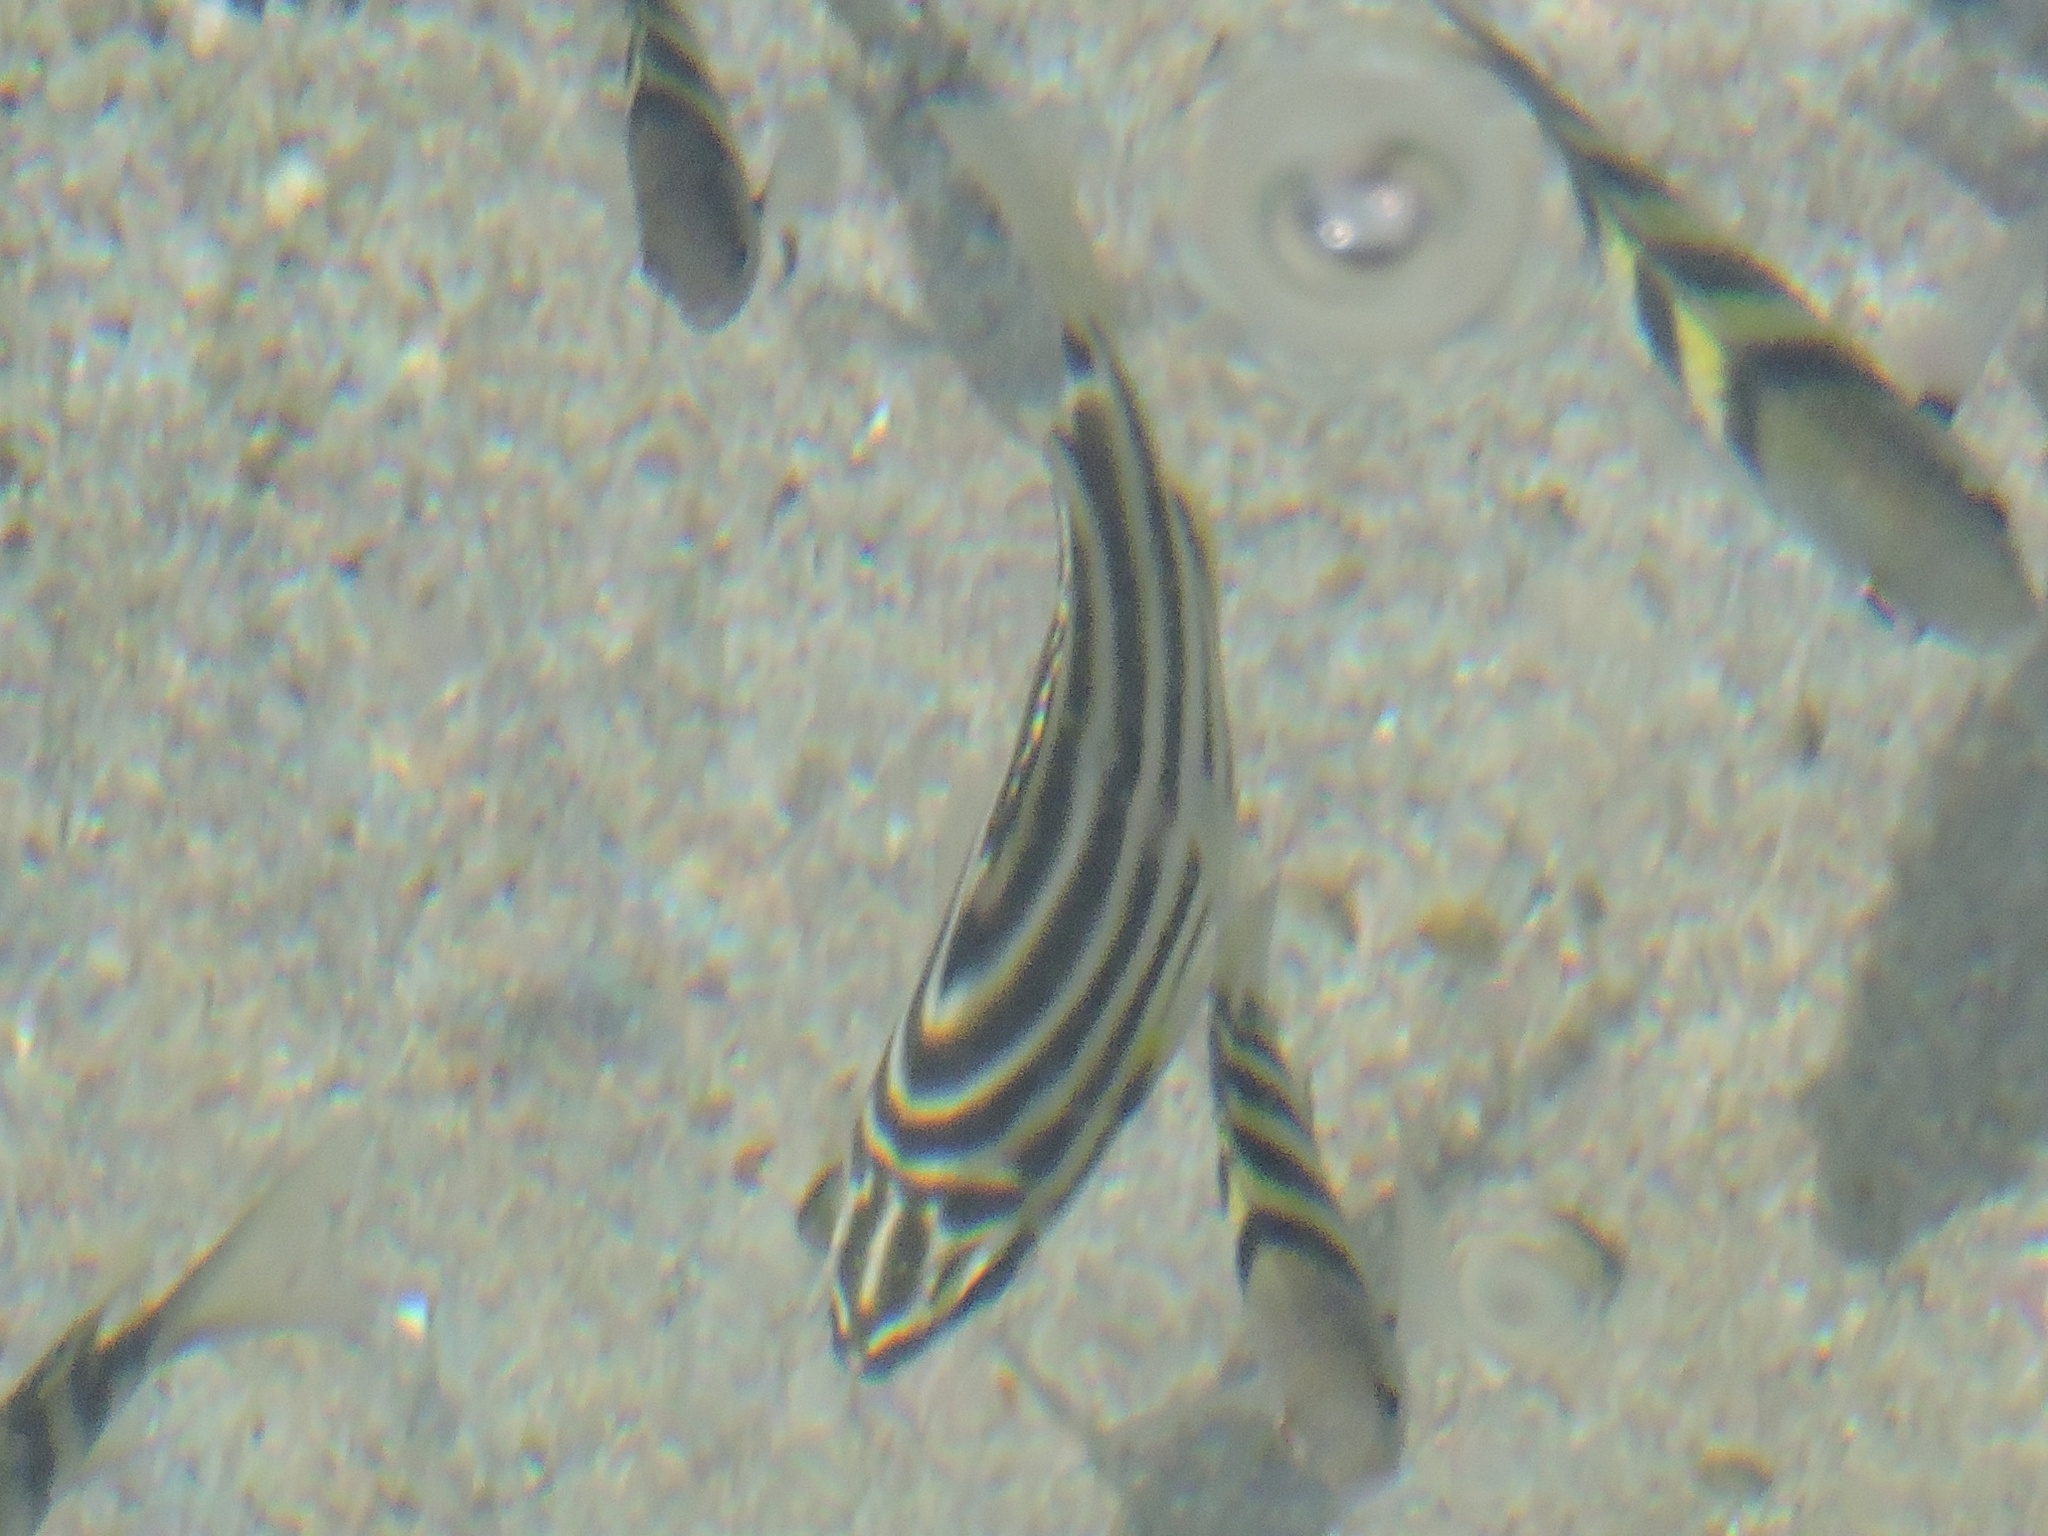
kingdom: Animalia
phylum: Chordata
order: Perciformes
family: Kyphosidae
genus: Microcanthus
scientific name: Microcanthus joyceae
